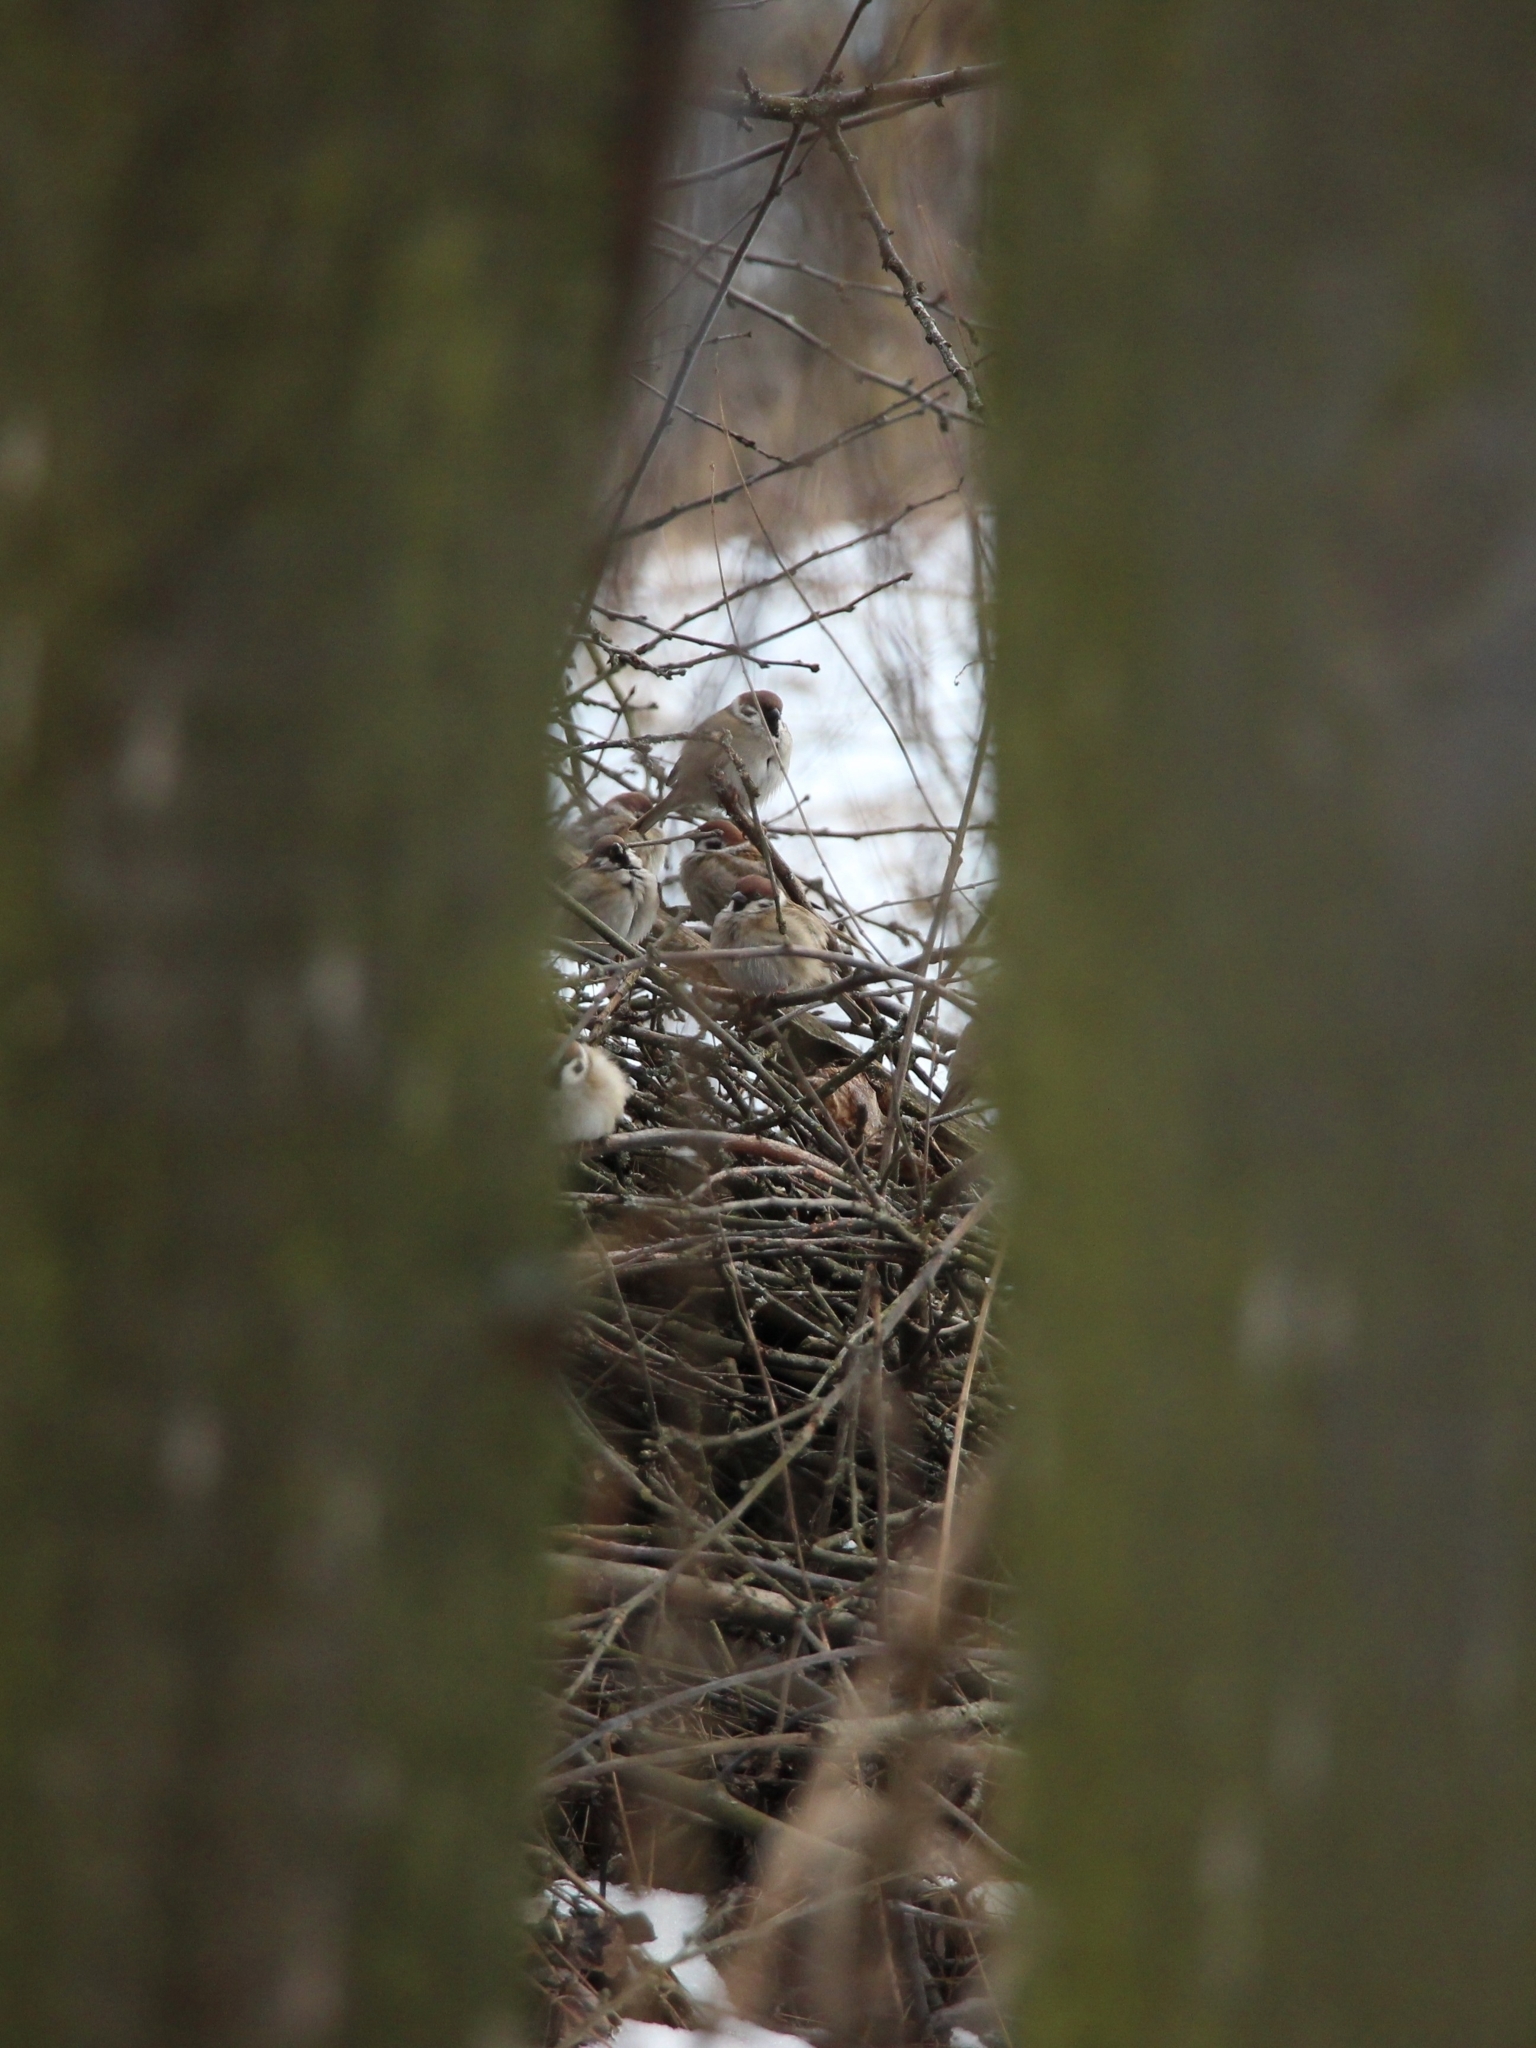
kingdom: Animalia
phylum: Chordata
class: Aves
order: Passeriformes
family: Passeridae
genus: Passer
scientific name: Passer montanus
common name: Eurasian tree sparrow
